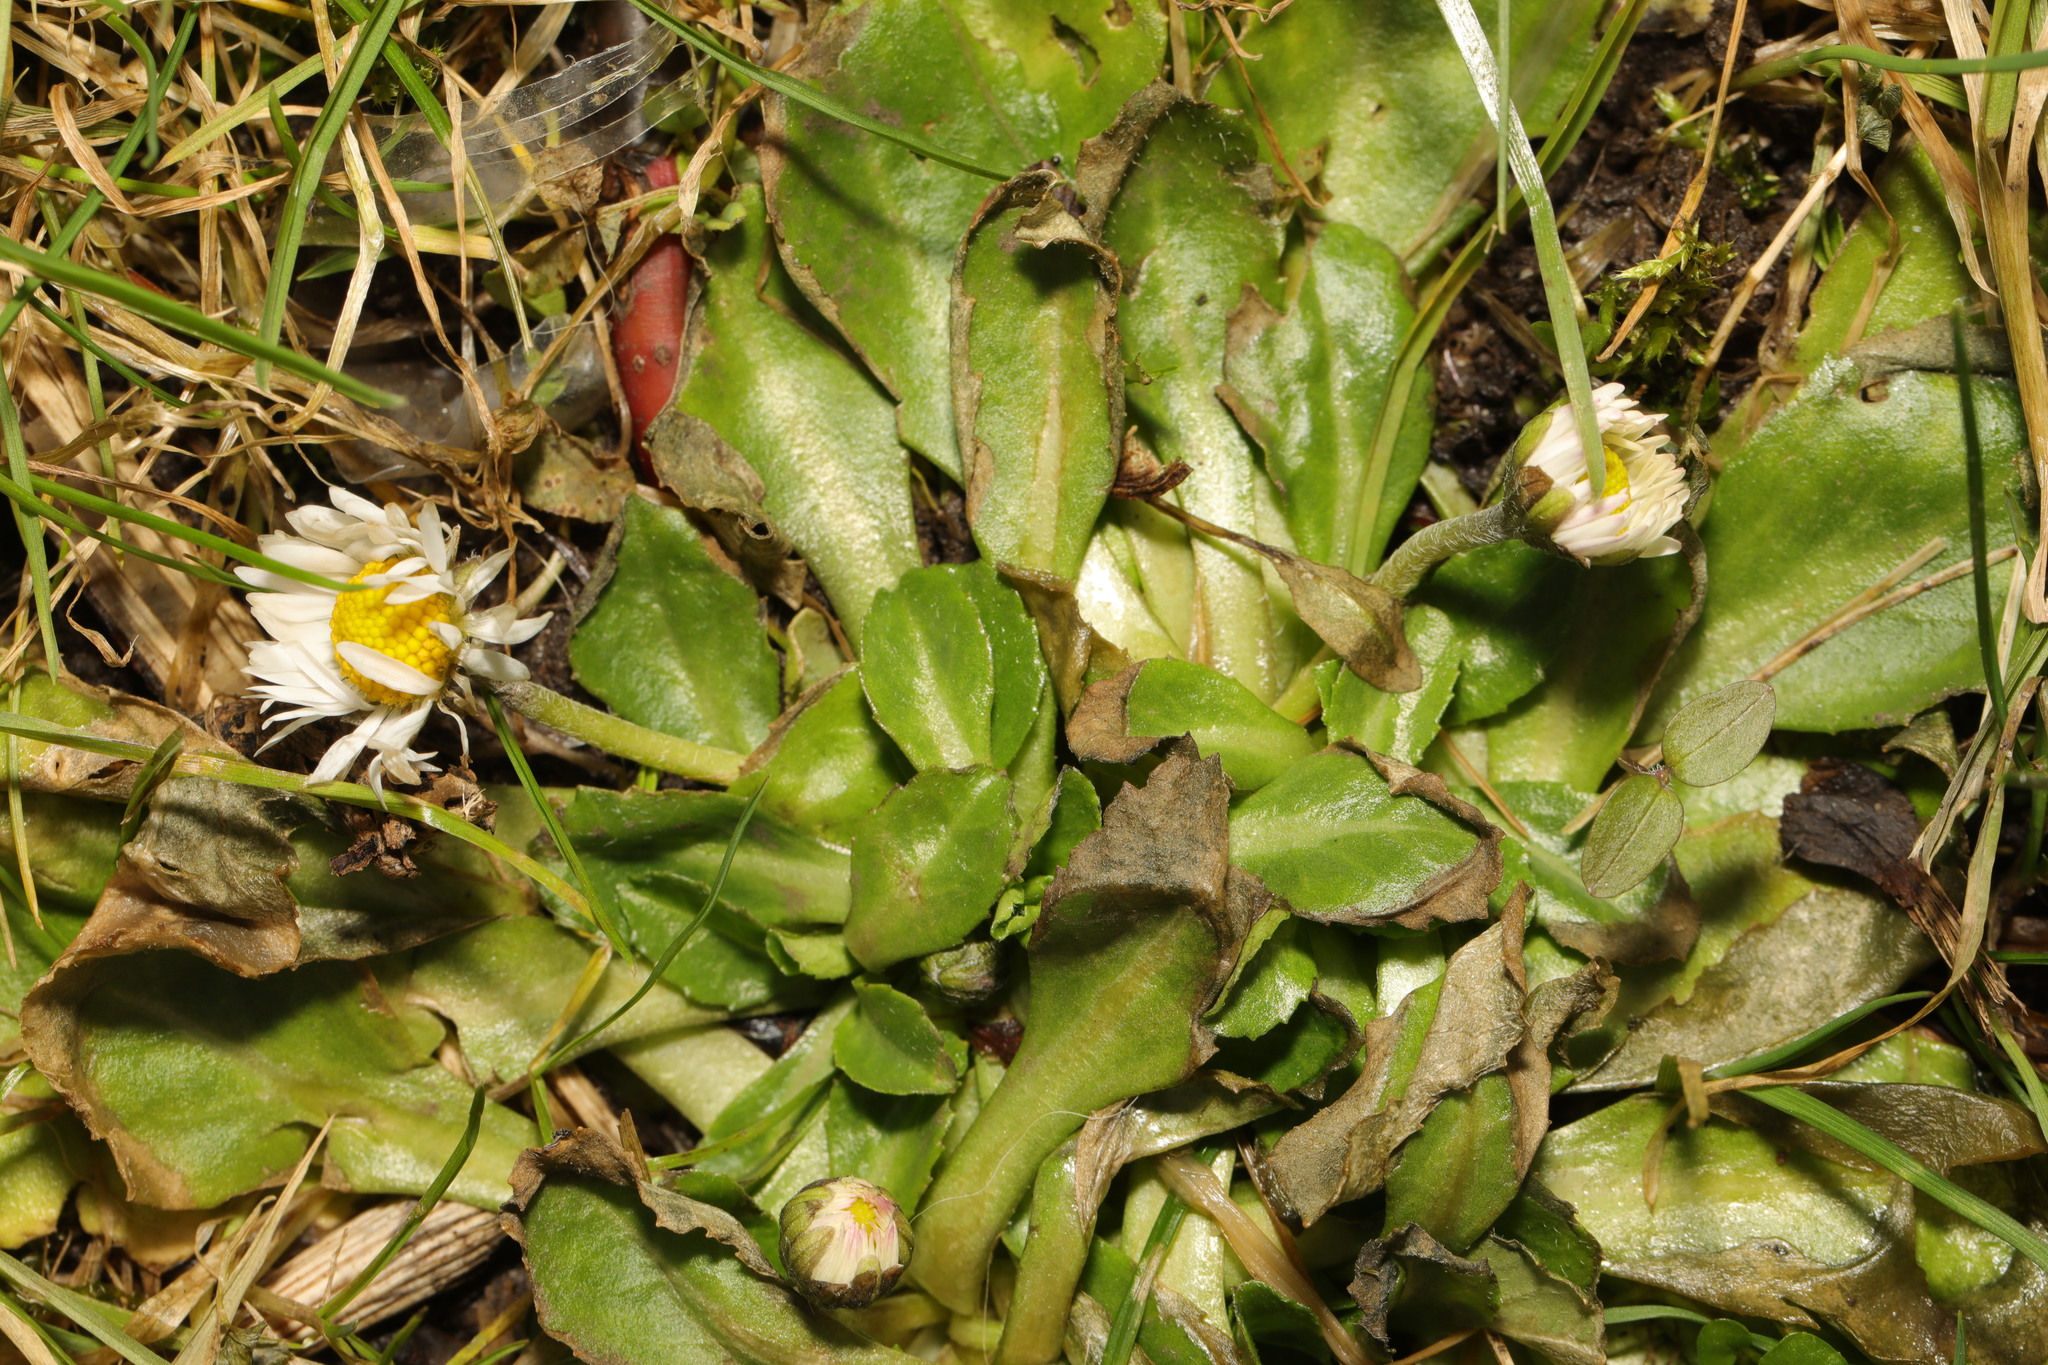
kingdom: Plantae
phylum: Tracheophyta
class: Magnoliopsida
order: Asterales
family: Asteraceae
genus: Bellis
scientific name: Bellis perennis
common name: Lawndaisy
